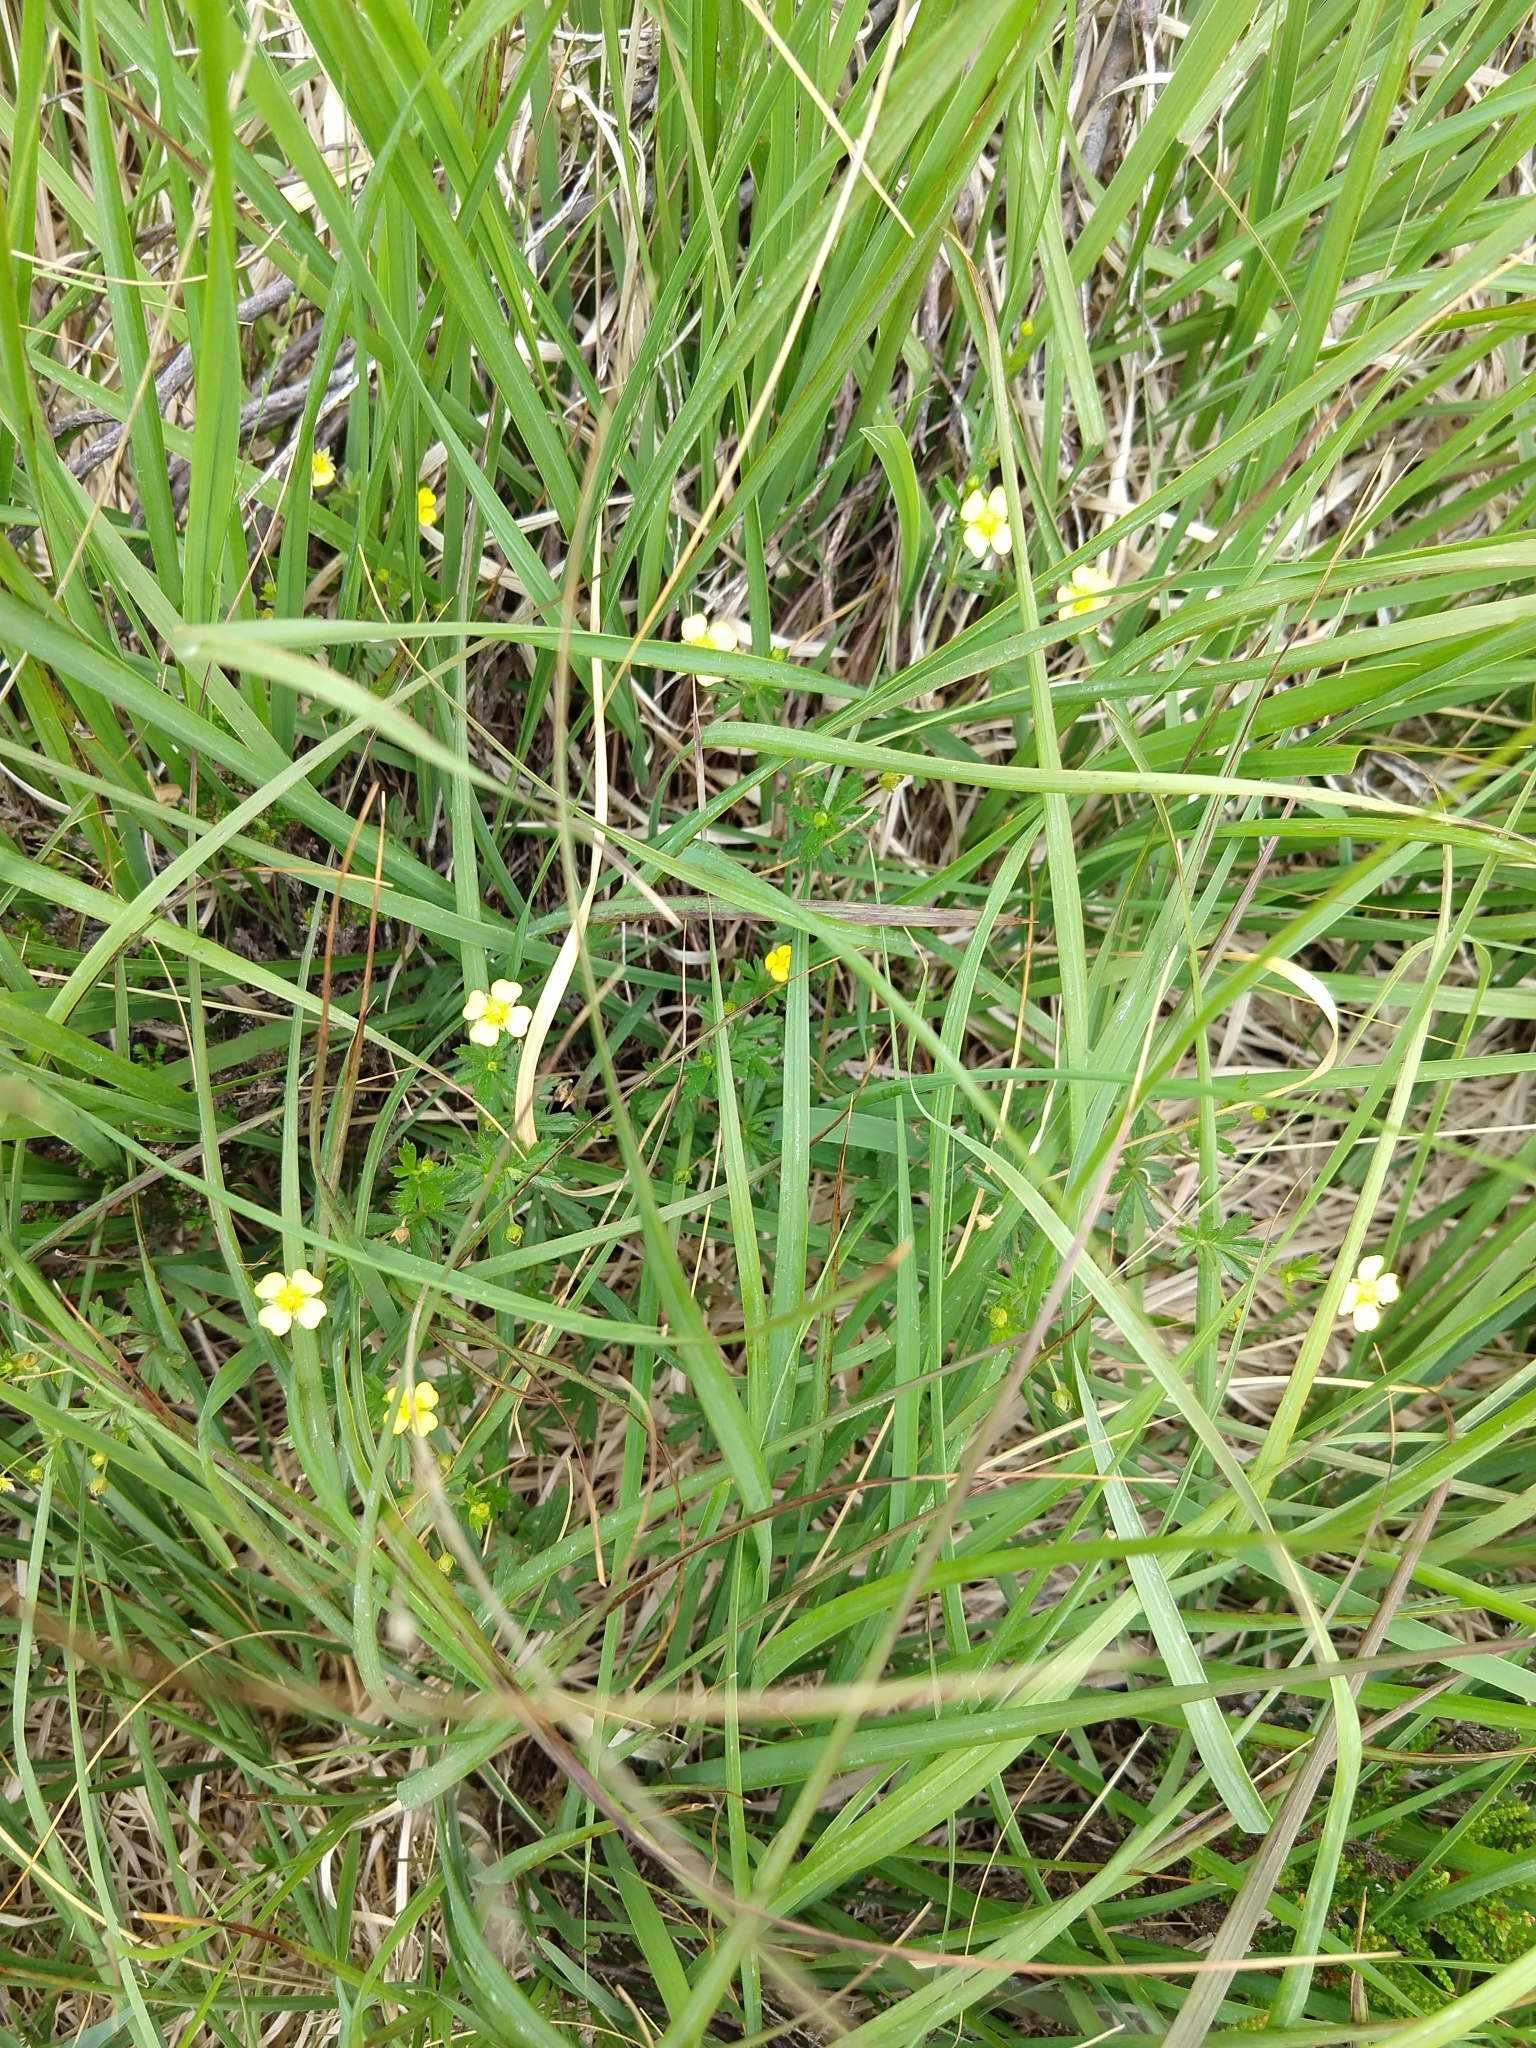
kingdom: Plantae
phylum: Tracheophyta
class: Magnoliopsida
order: Rosales
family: Rosaceae
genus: Potentilla
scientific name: Potentilla erecta
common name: Tormentil
